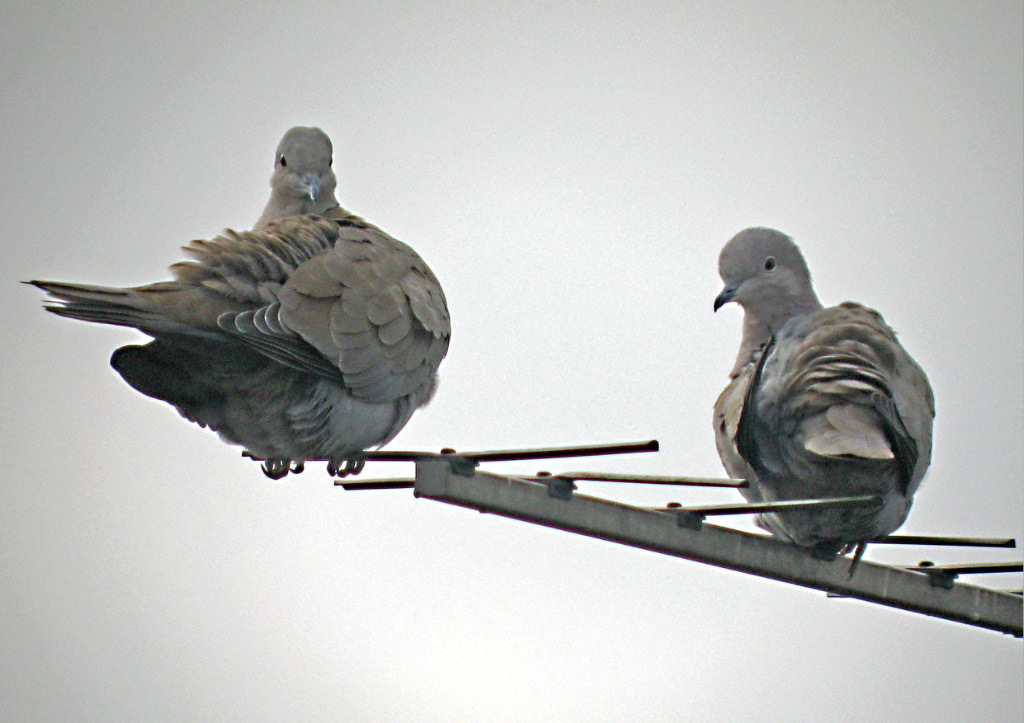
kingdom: Animalia
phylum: Chordata
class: Aves
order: Columbiformes
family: Columbidae
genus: Streptopelia
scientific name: Streptopelia decaocto
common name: Eurasian collared dove
